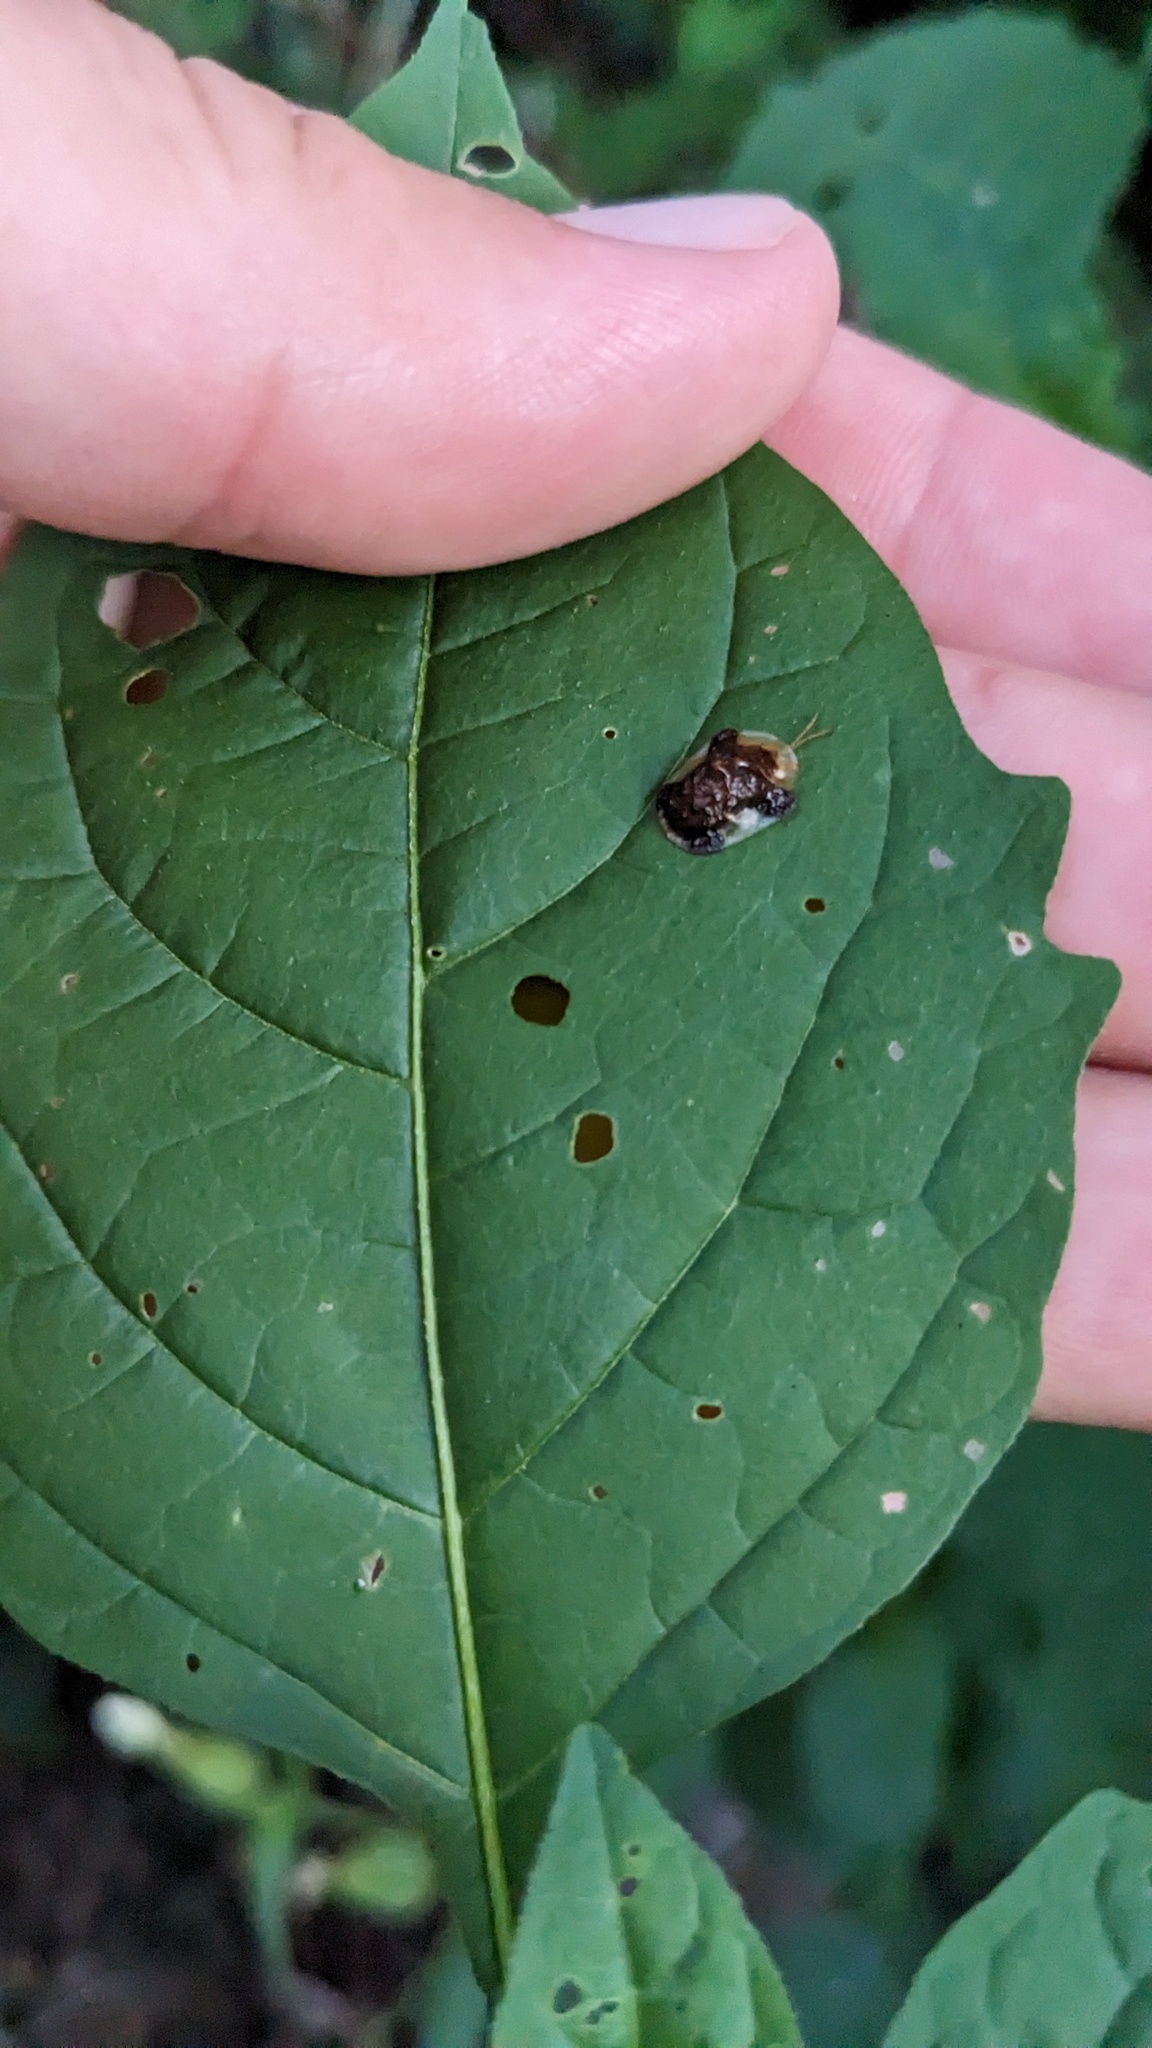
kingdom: Animalia
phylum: Arthropoda
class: Insecta
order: Coleoptera
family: Chrysomelidae
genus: Helocassis
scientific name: Helocassis clavata
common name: Clavate tortoise beetle
